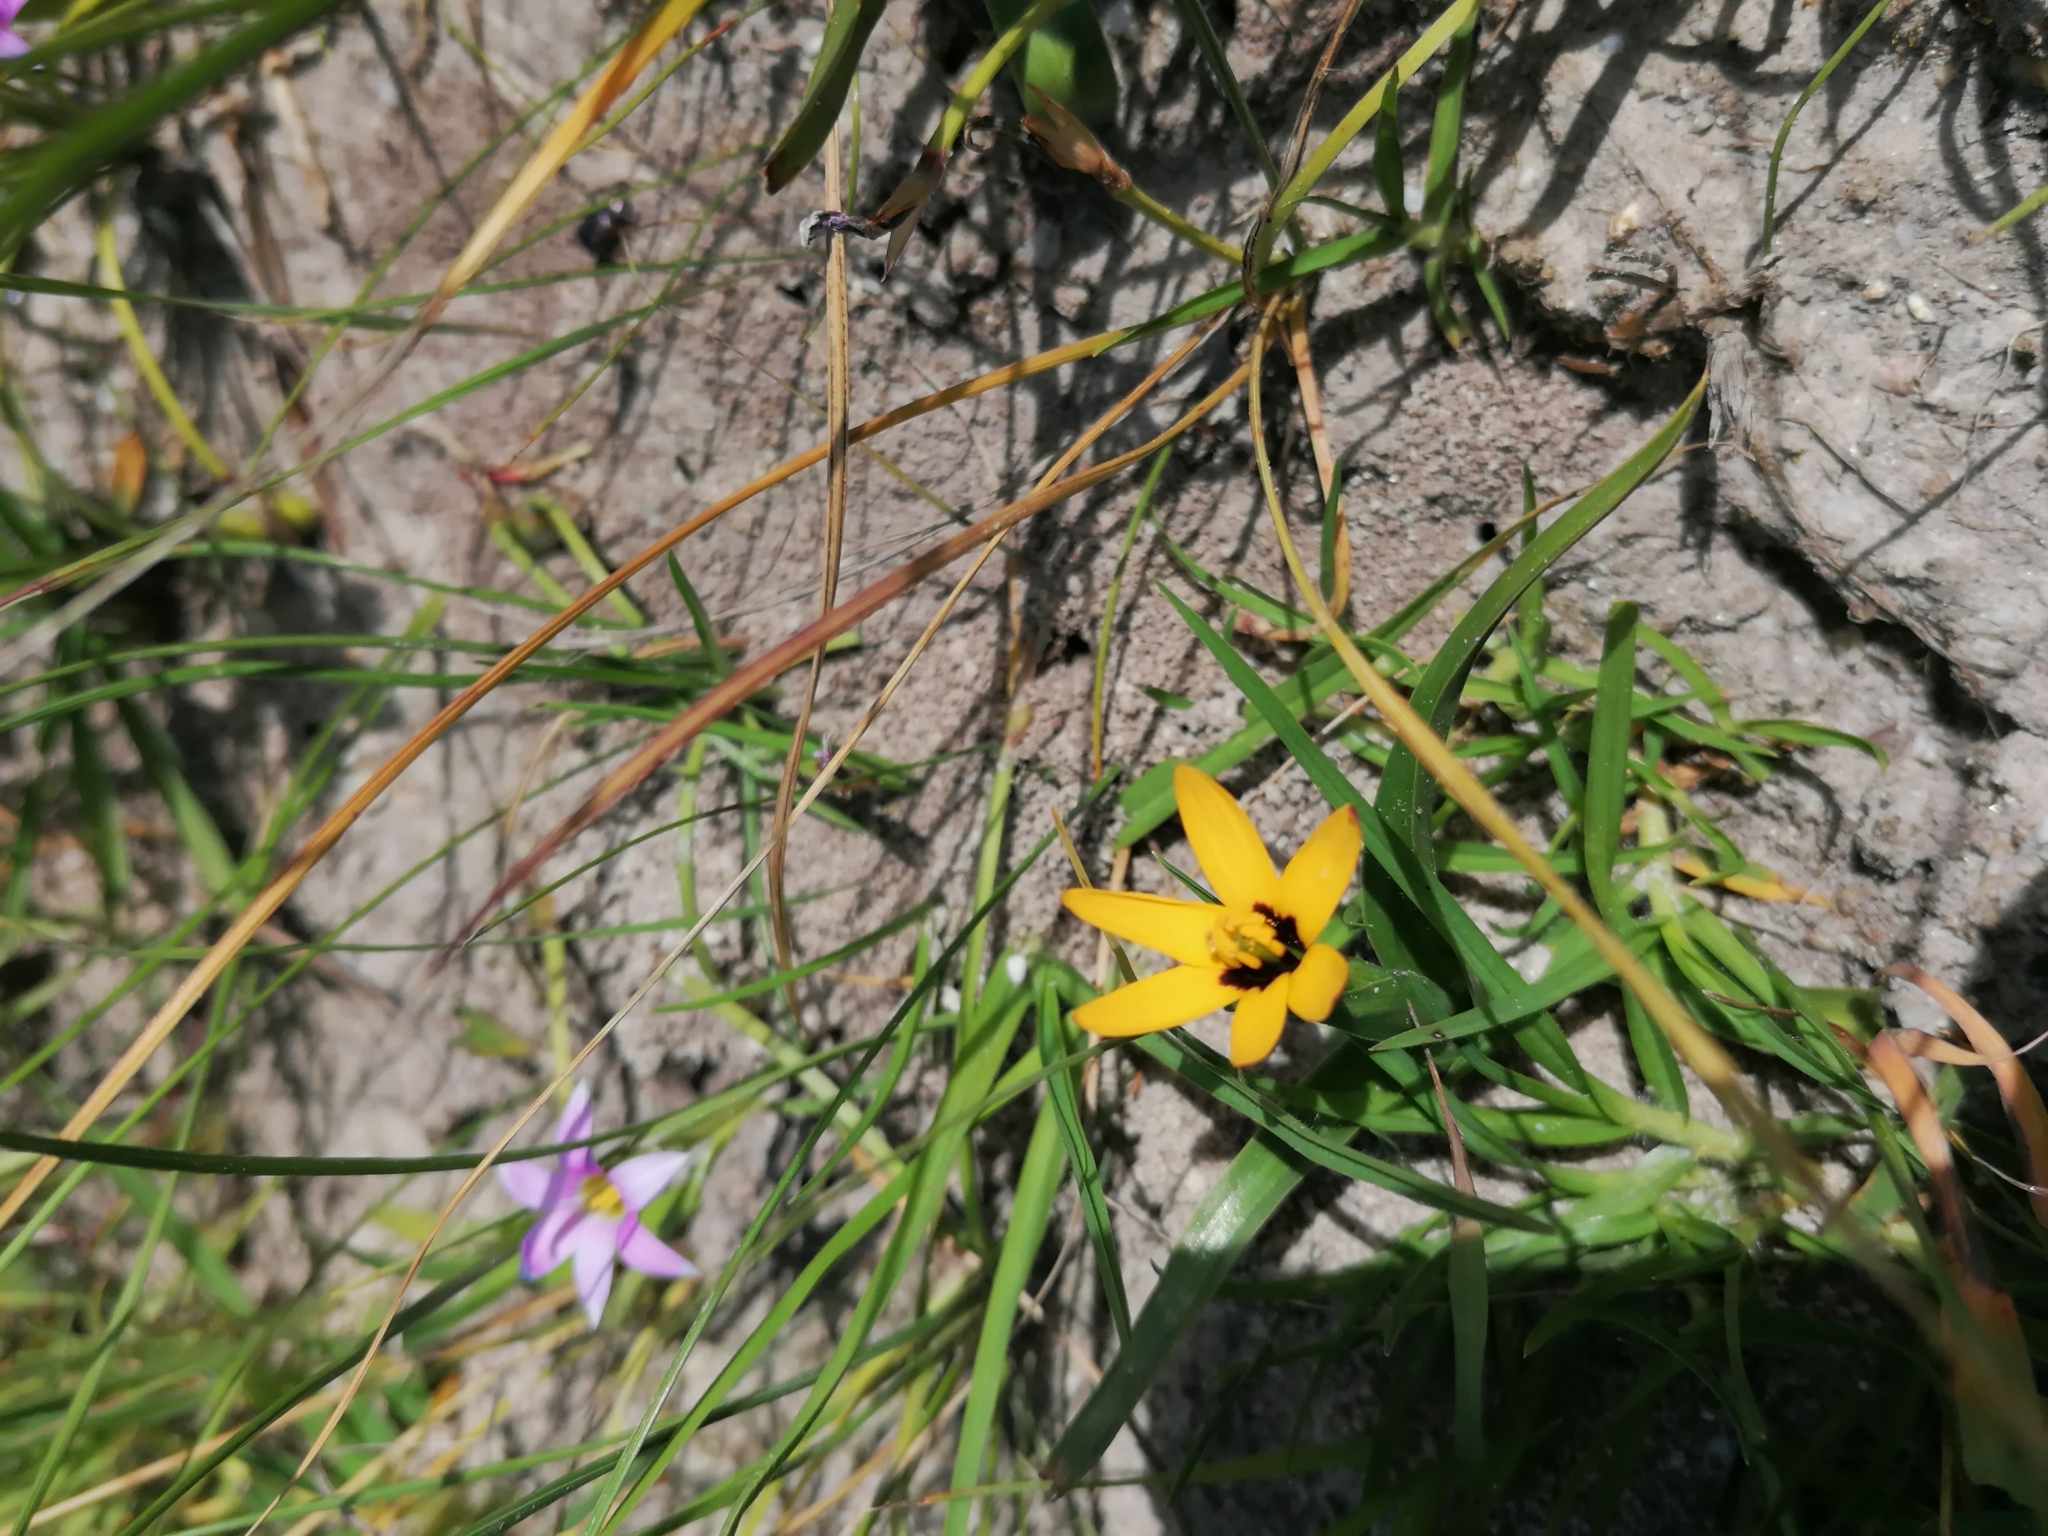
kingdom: Plantae
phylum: Tracheophyta
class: Liliopsida
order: Liliales
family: Colchicaceae
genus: Baeometra
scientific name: Baeometra uniflora
